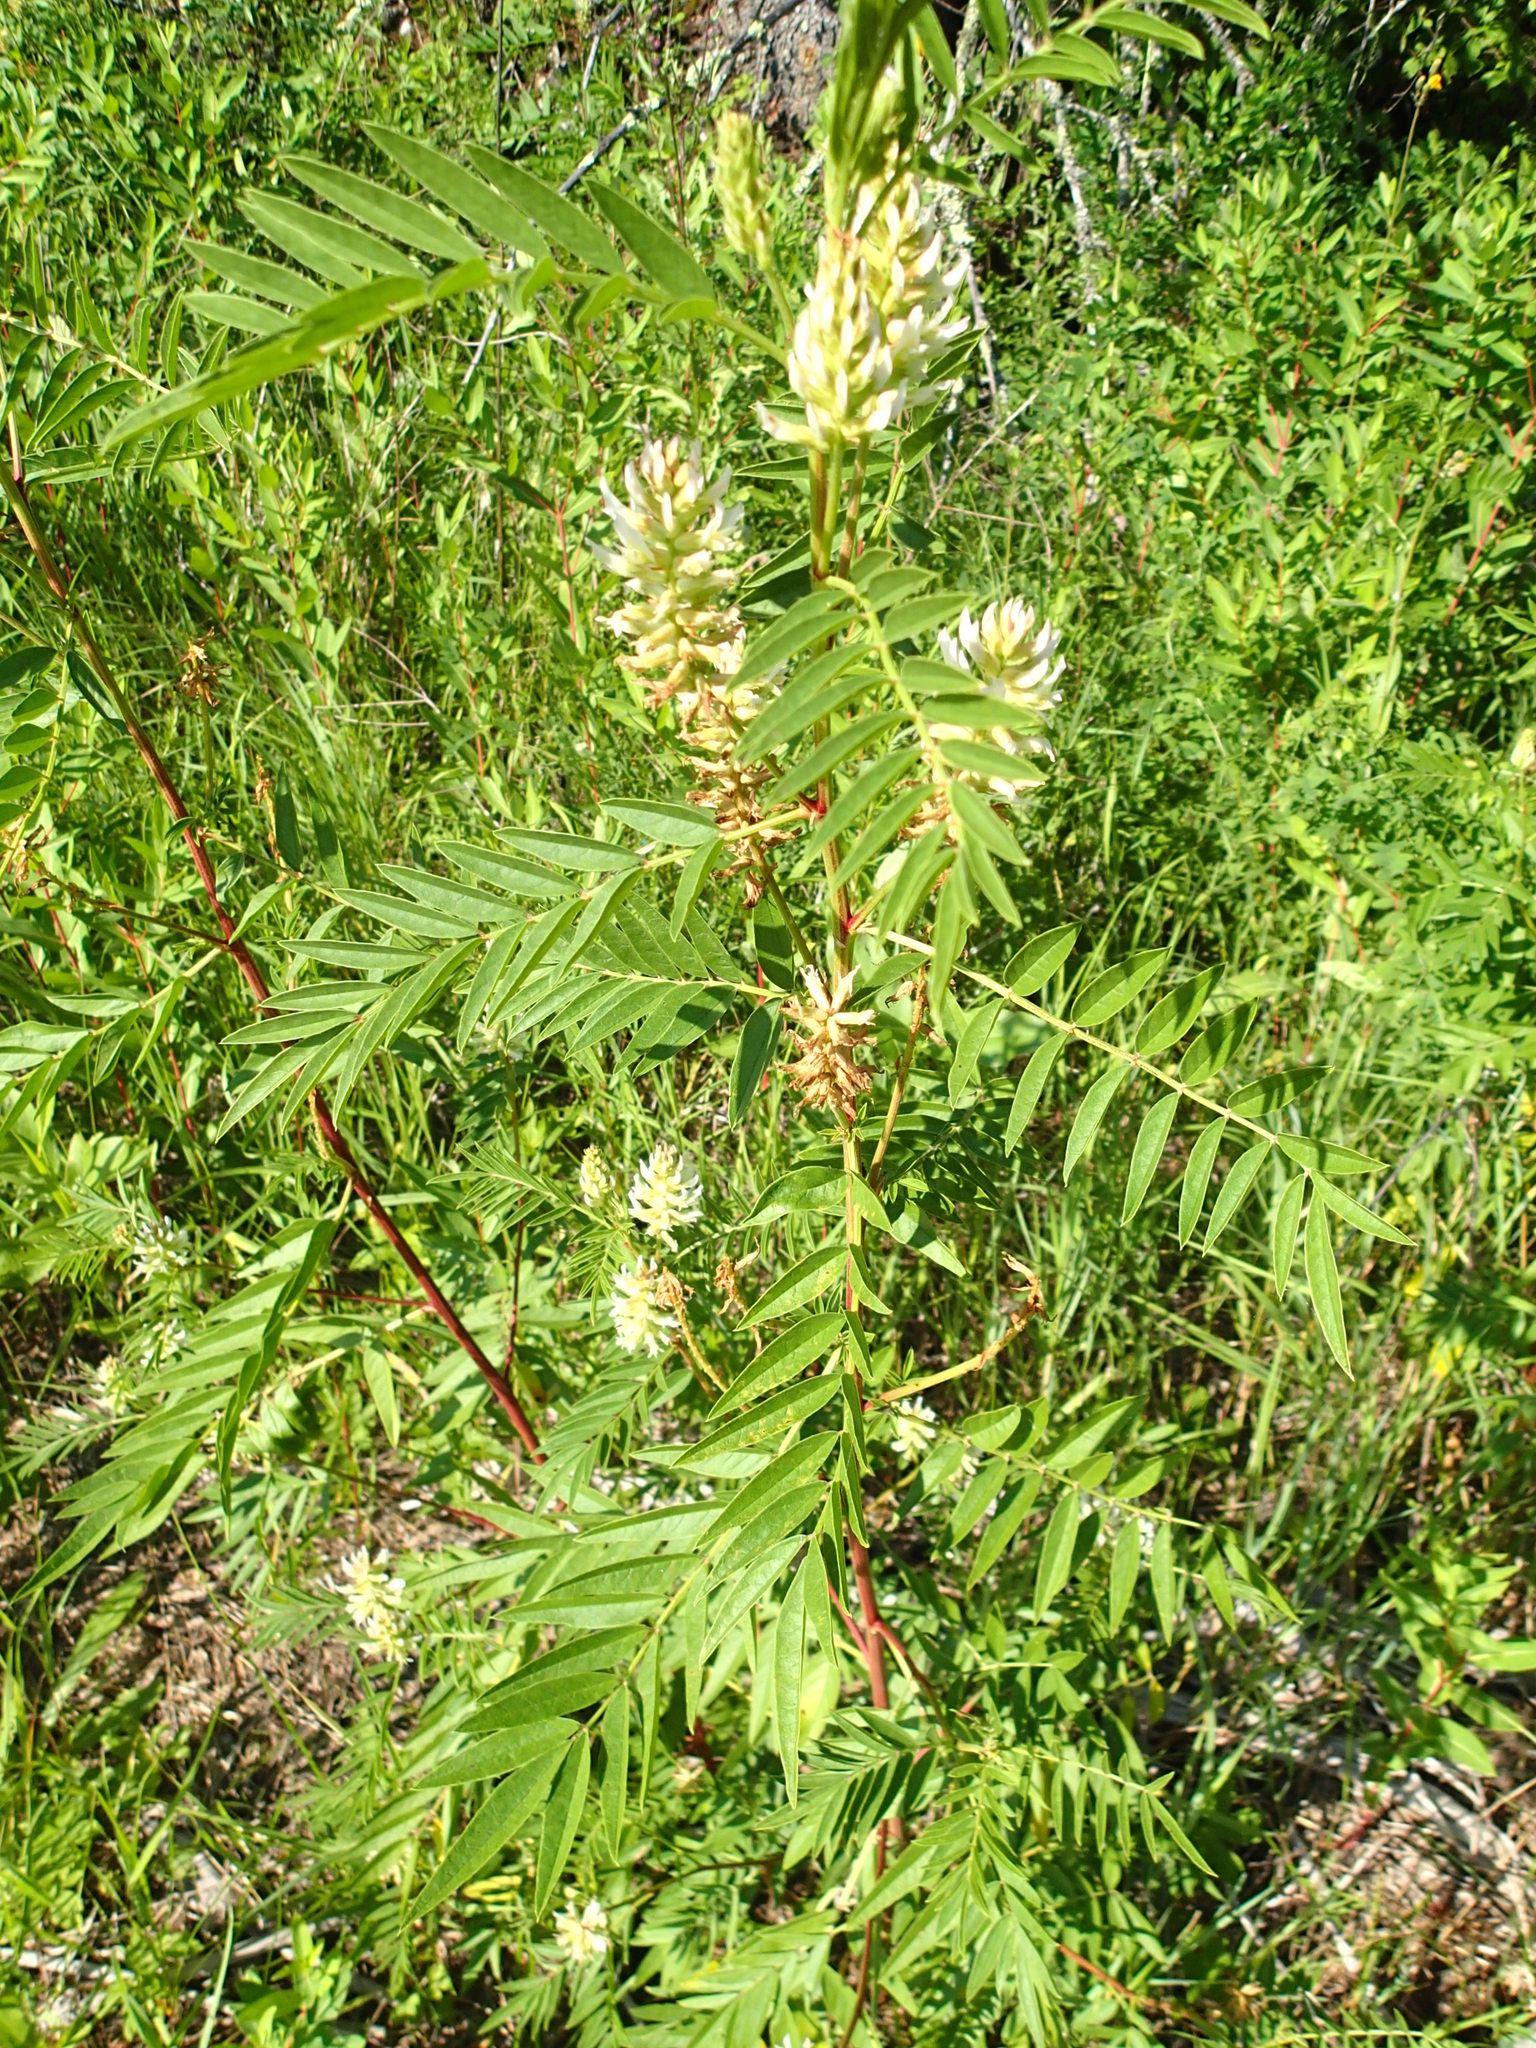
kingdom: Plantae
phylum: Tracheophyta
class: Magnoliopsida
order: Fabales
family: Fabaceae
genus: Glycyrrhiza
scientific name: Glycyrrhiza lepidota
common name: American liquorice
